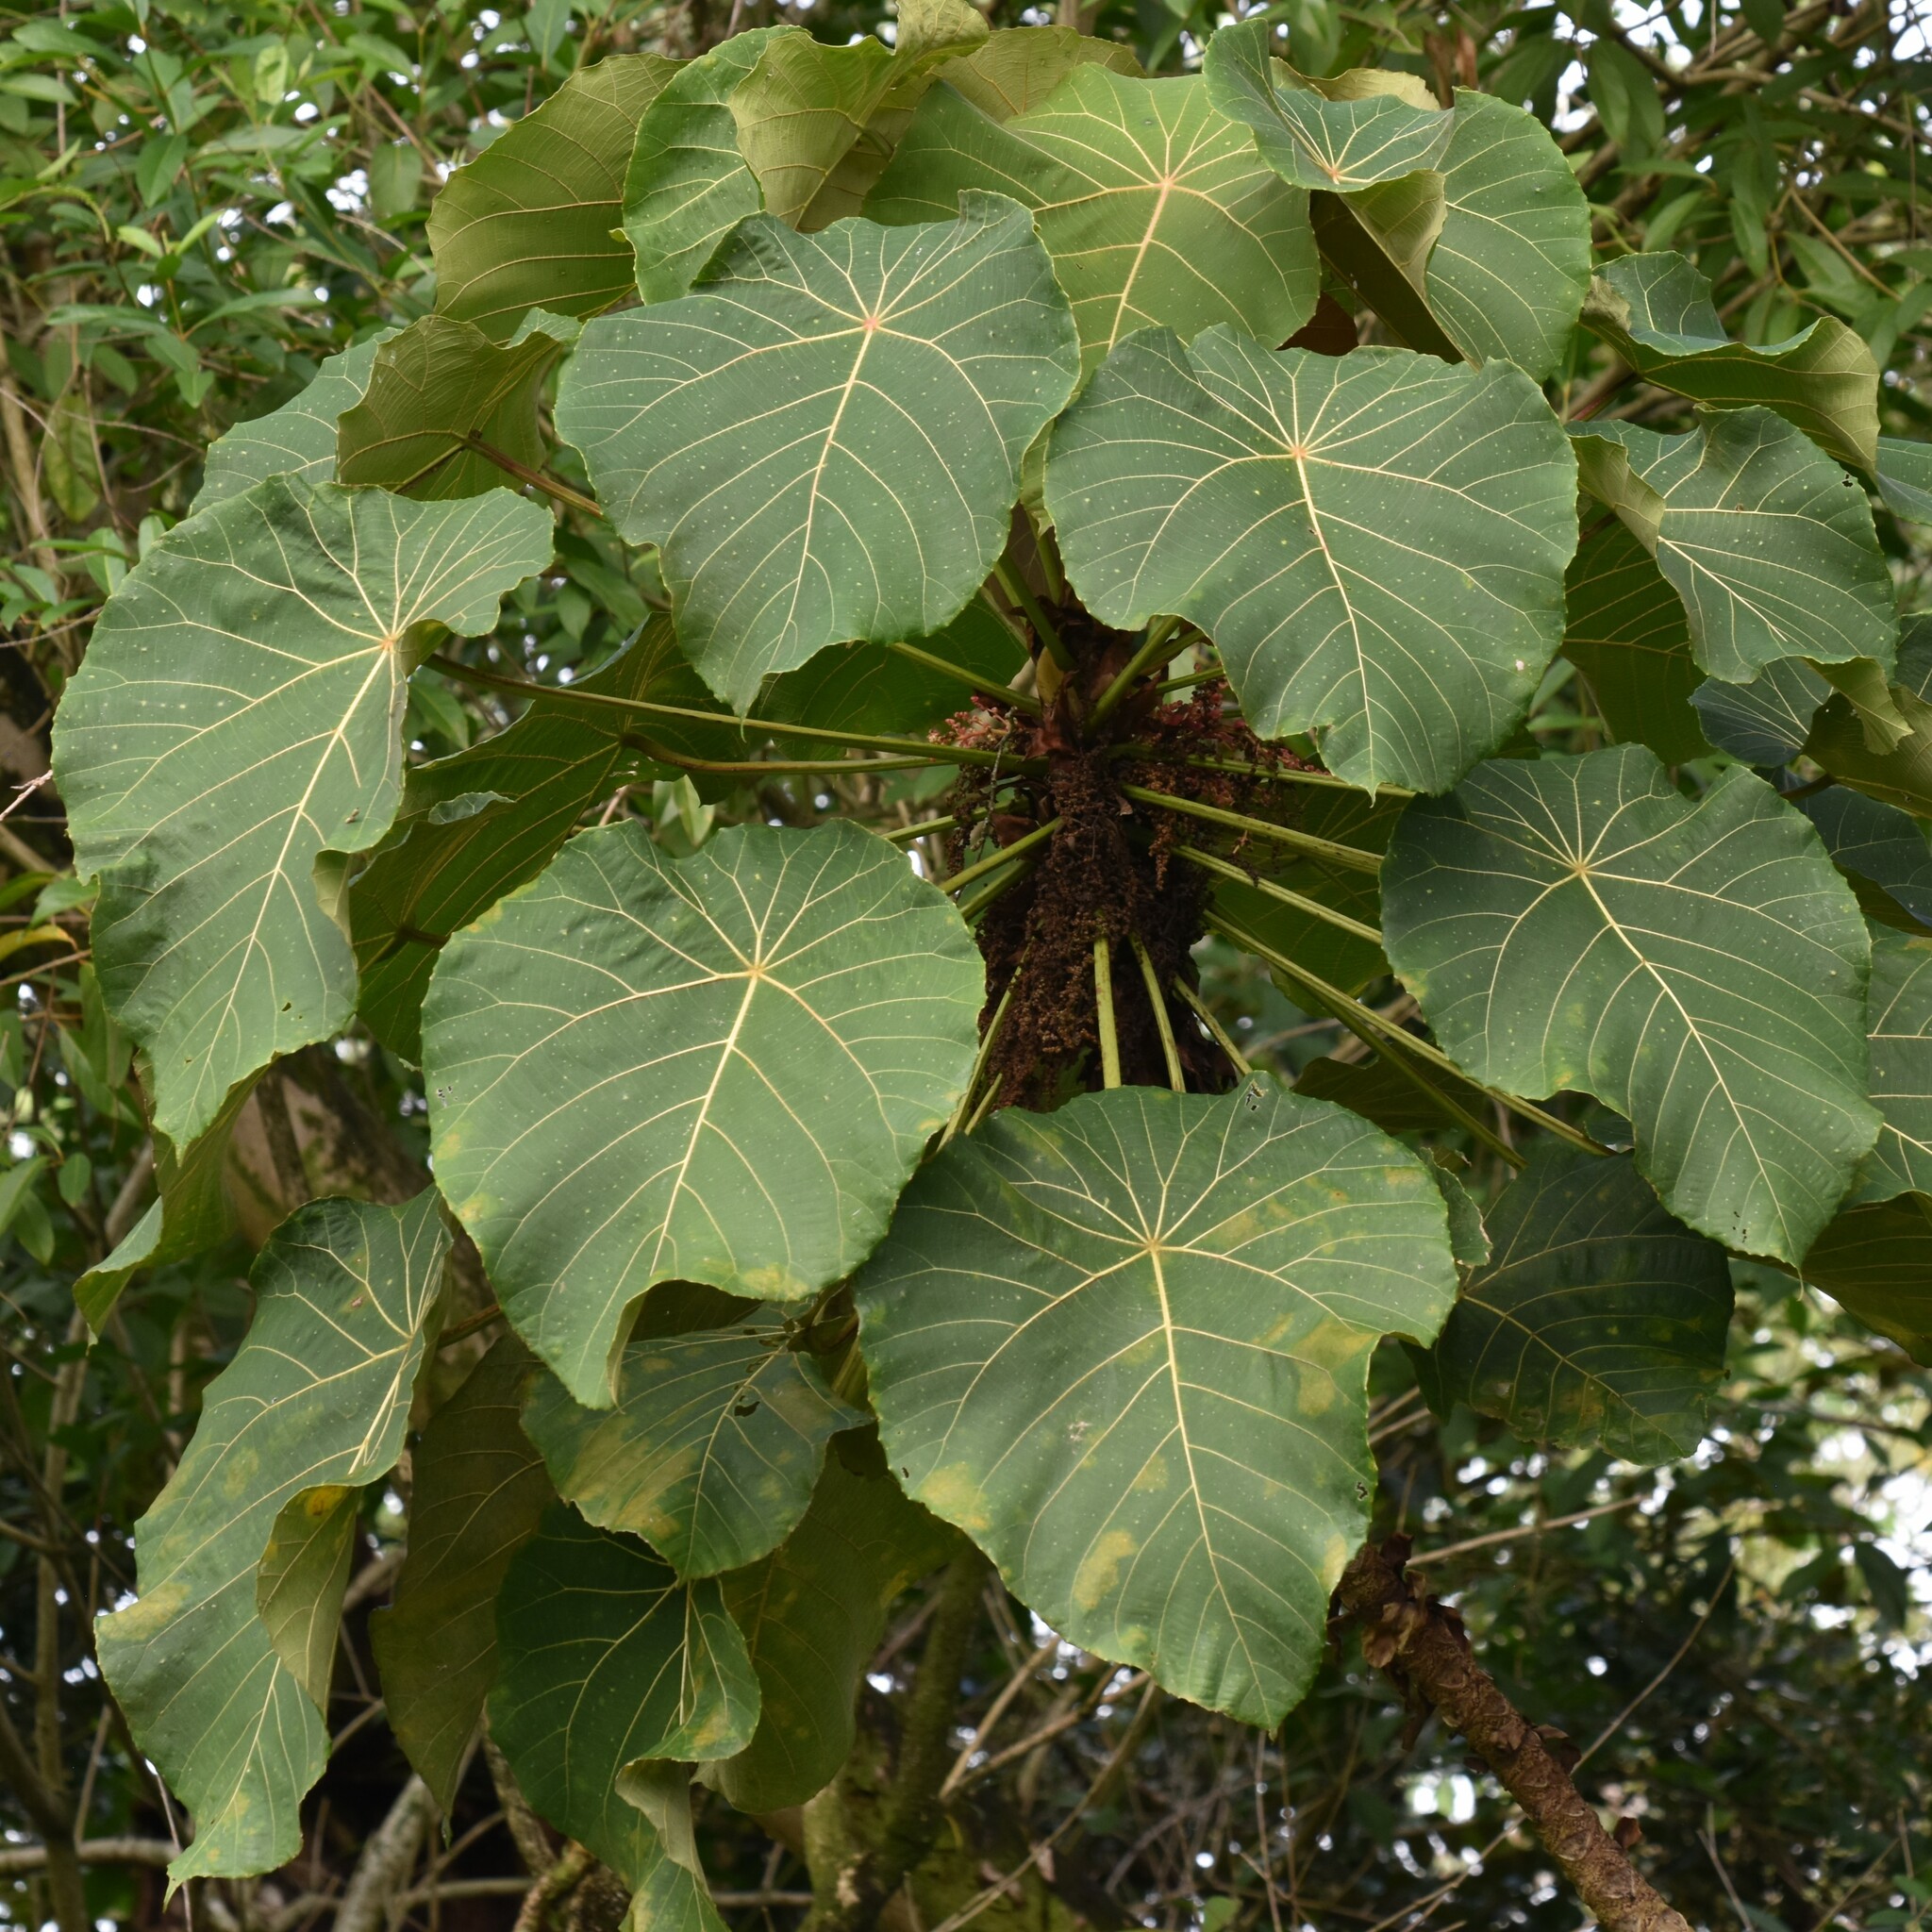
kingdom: Plantae
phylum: Tracheophyta
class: Magnoliopsida
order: Malpighiales
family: Euphorbiaceae
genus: Macaranga
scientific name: Macaranga mappa
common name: Pengua
